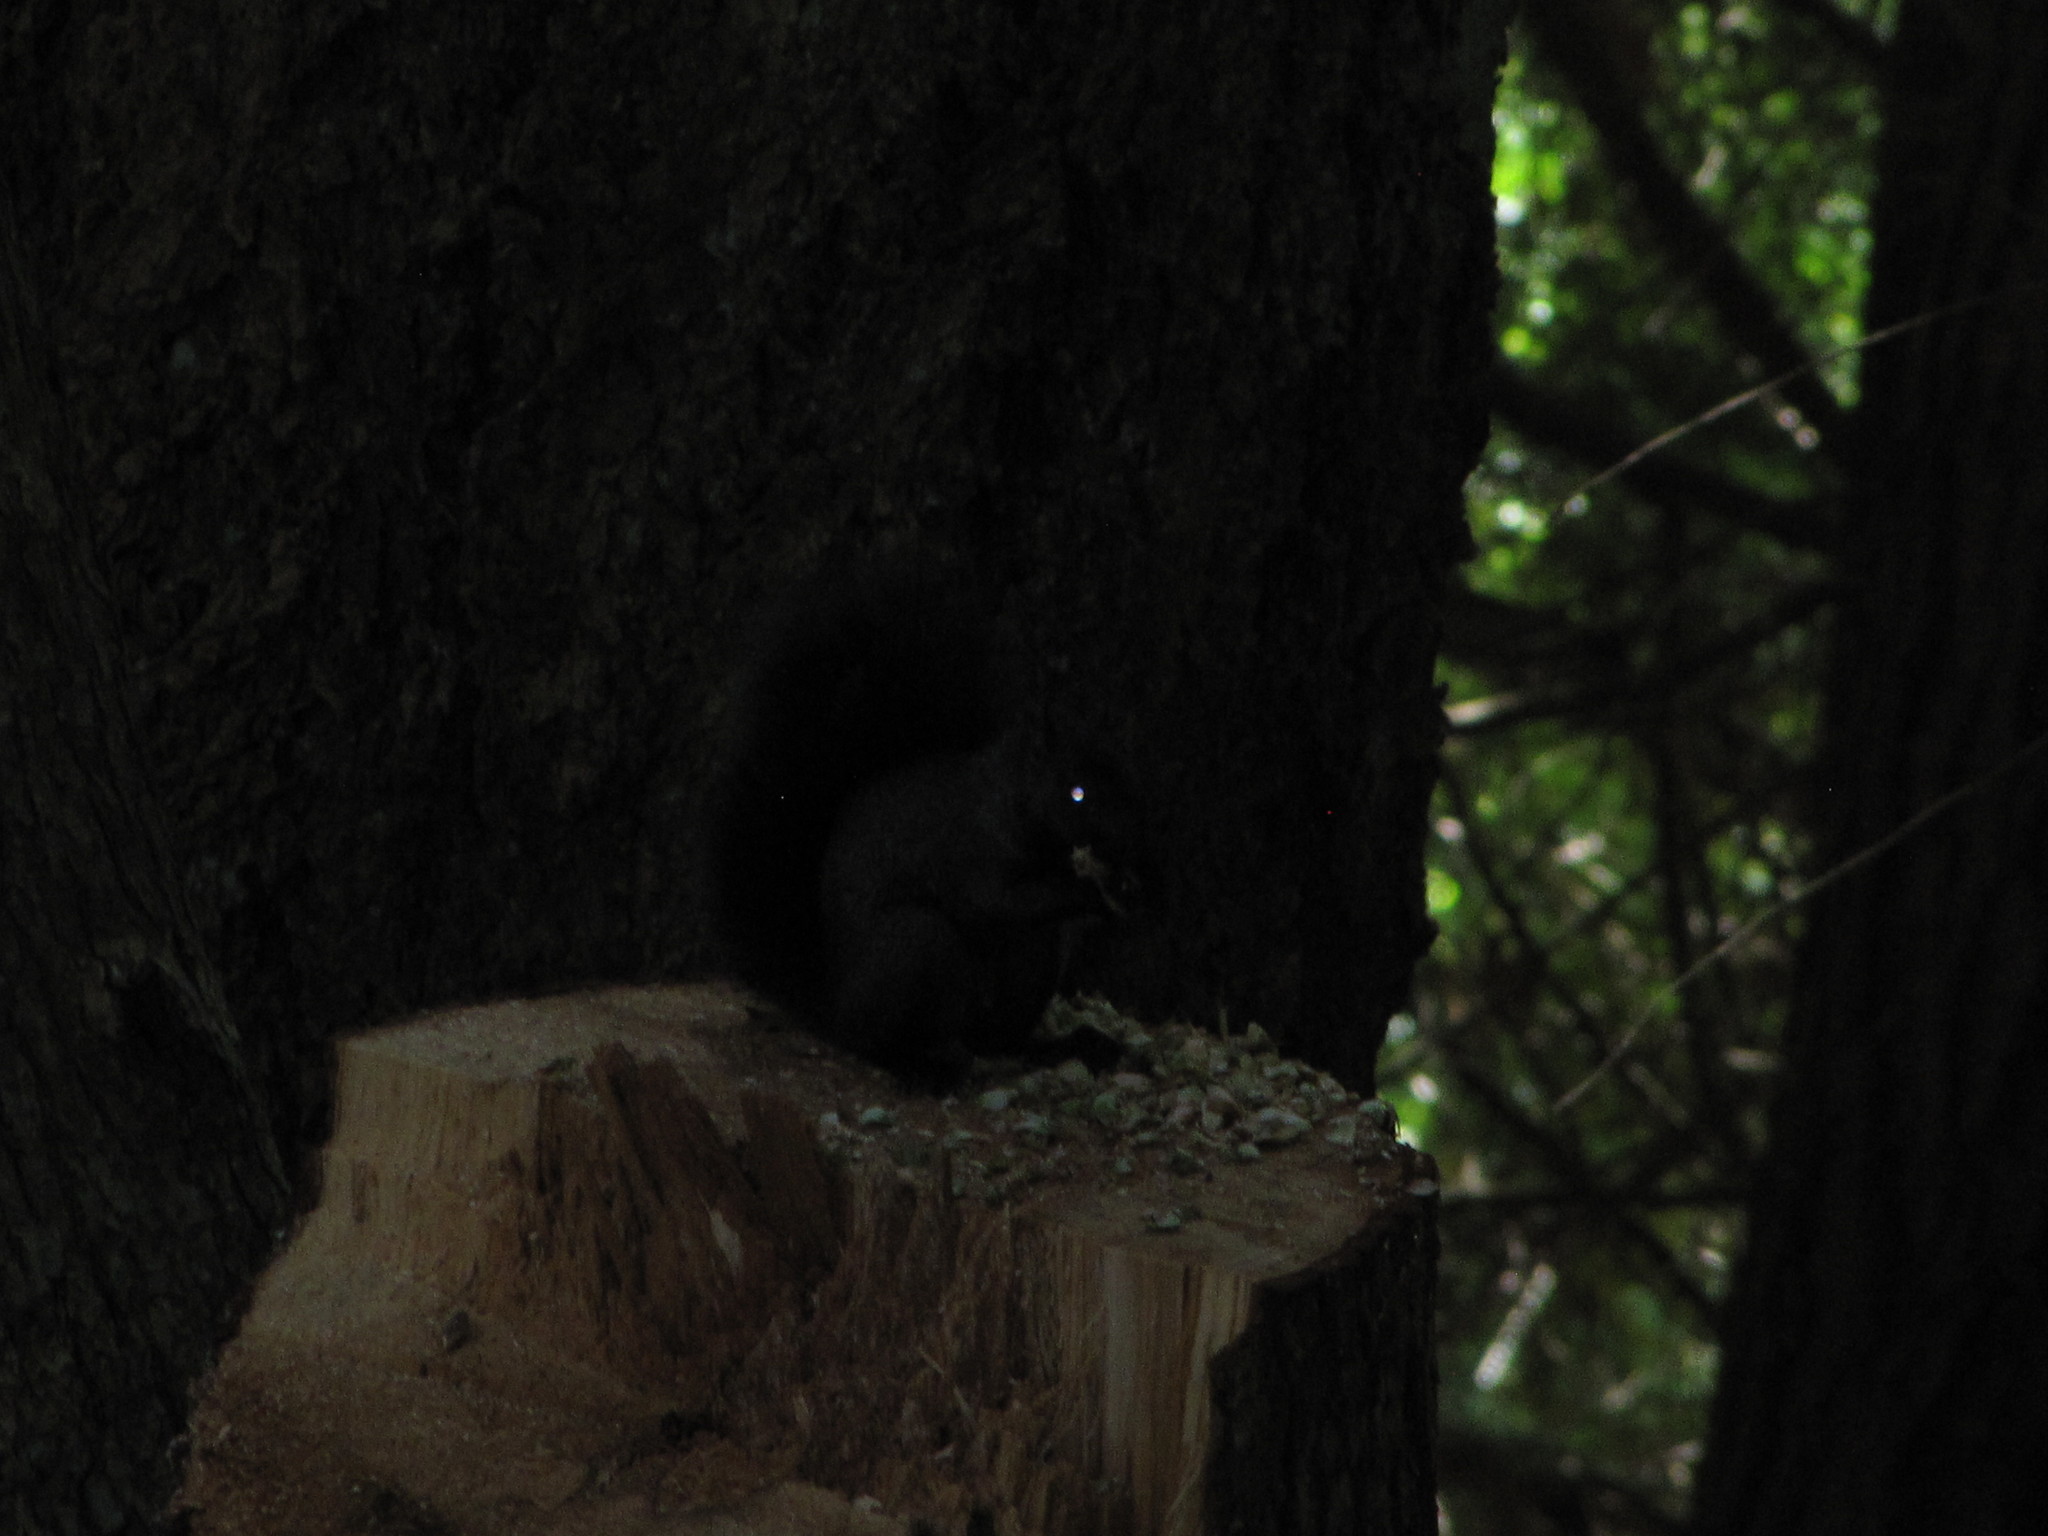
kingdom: Animalia
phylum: Chordata
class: Mammalia
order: Rodentia
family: Sciuridae
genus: Sciurus
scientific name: Sciurus carolinensis
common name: Eastern gray squirrel
